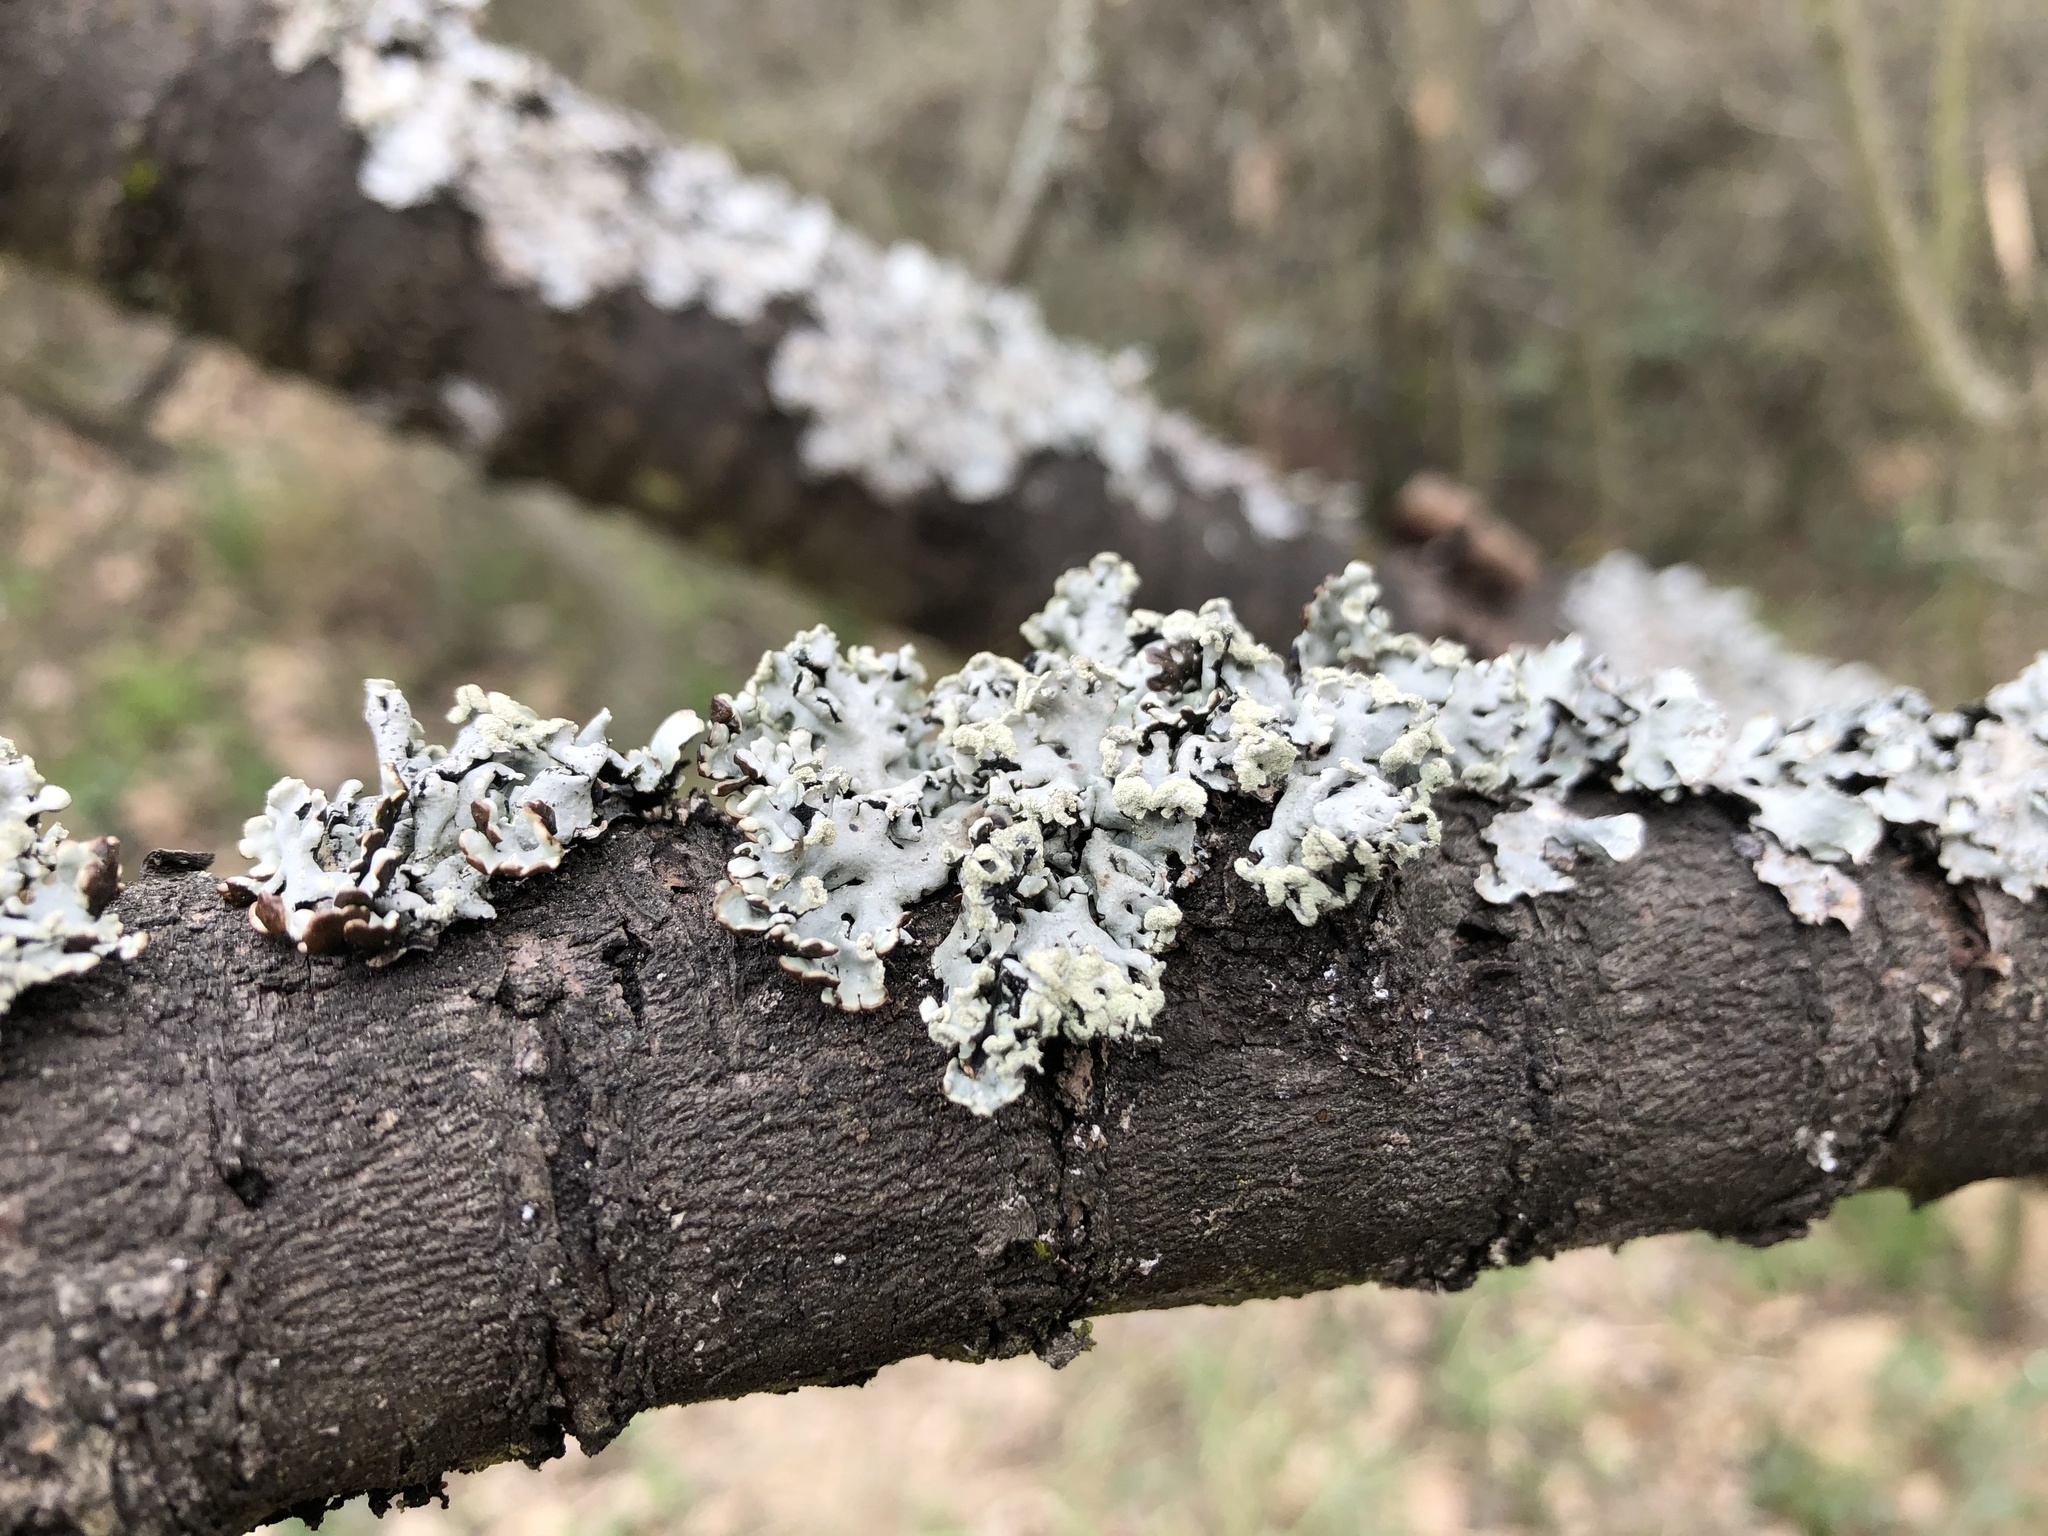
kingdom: Fungi
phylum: Ascomycota
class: Lecanoromycetes
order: Lecanorales
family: Parmeliaceae
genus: Hypogymnia
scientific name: Hypogymnia physodes
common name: Dark crottle
